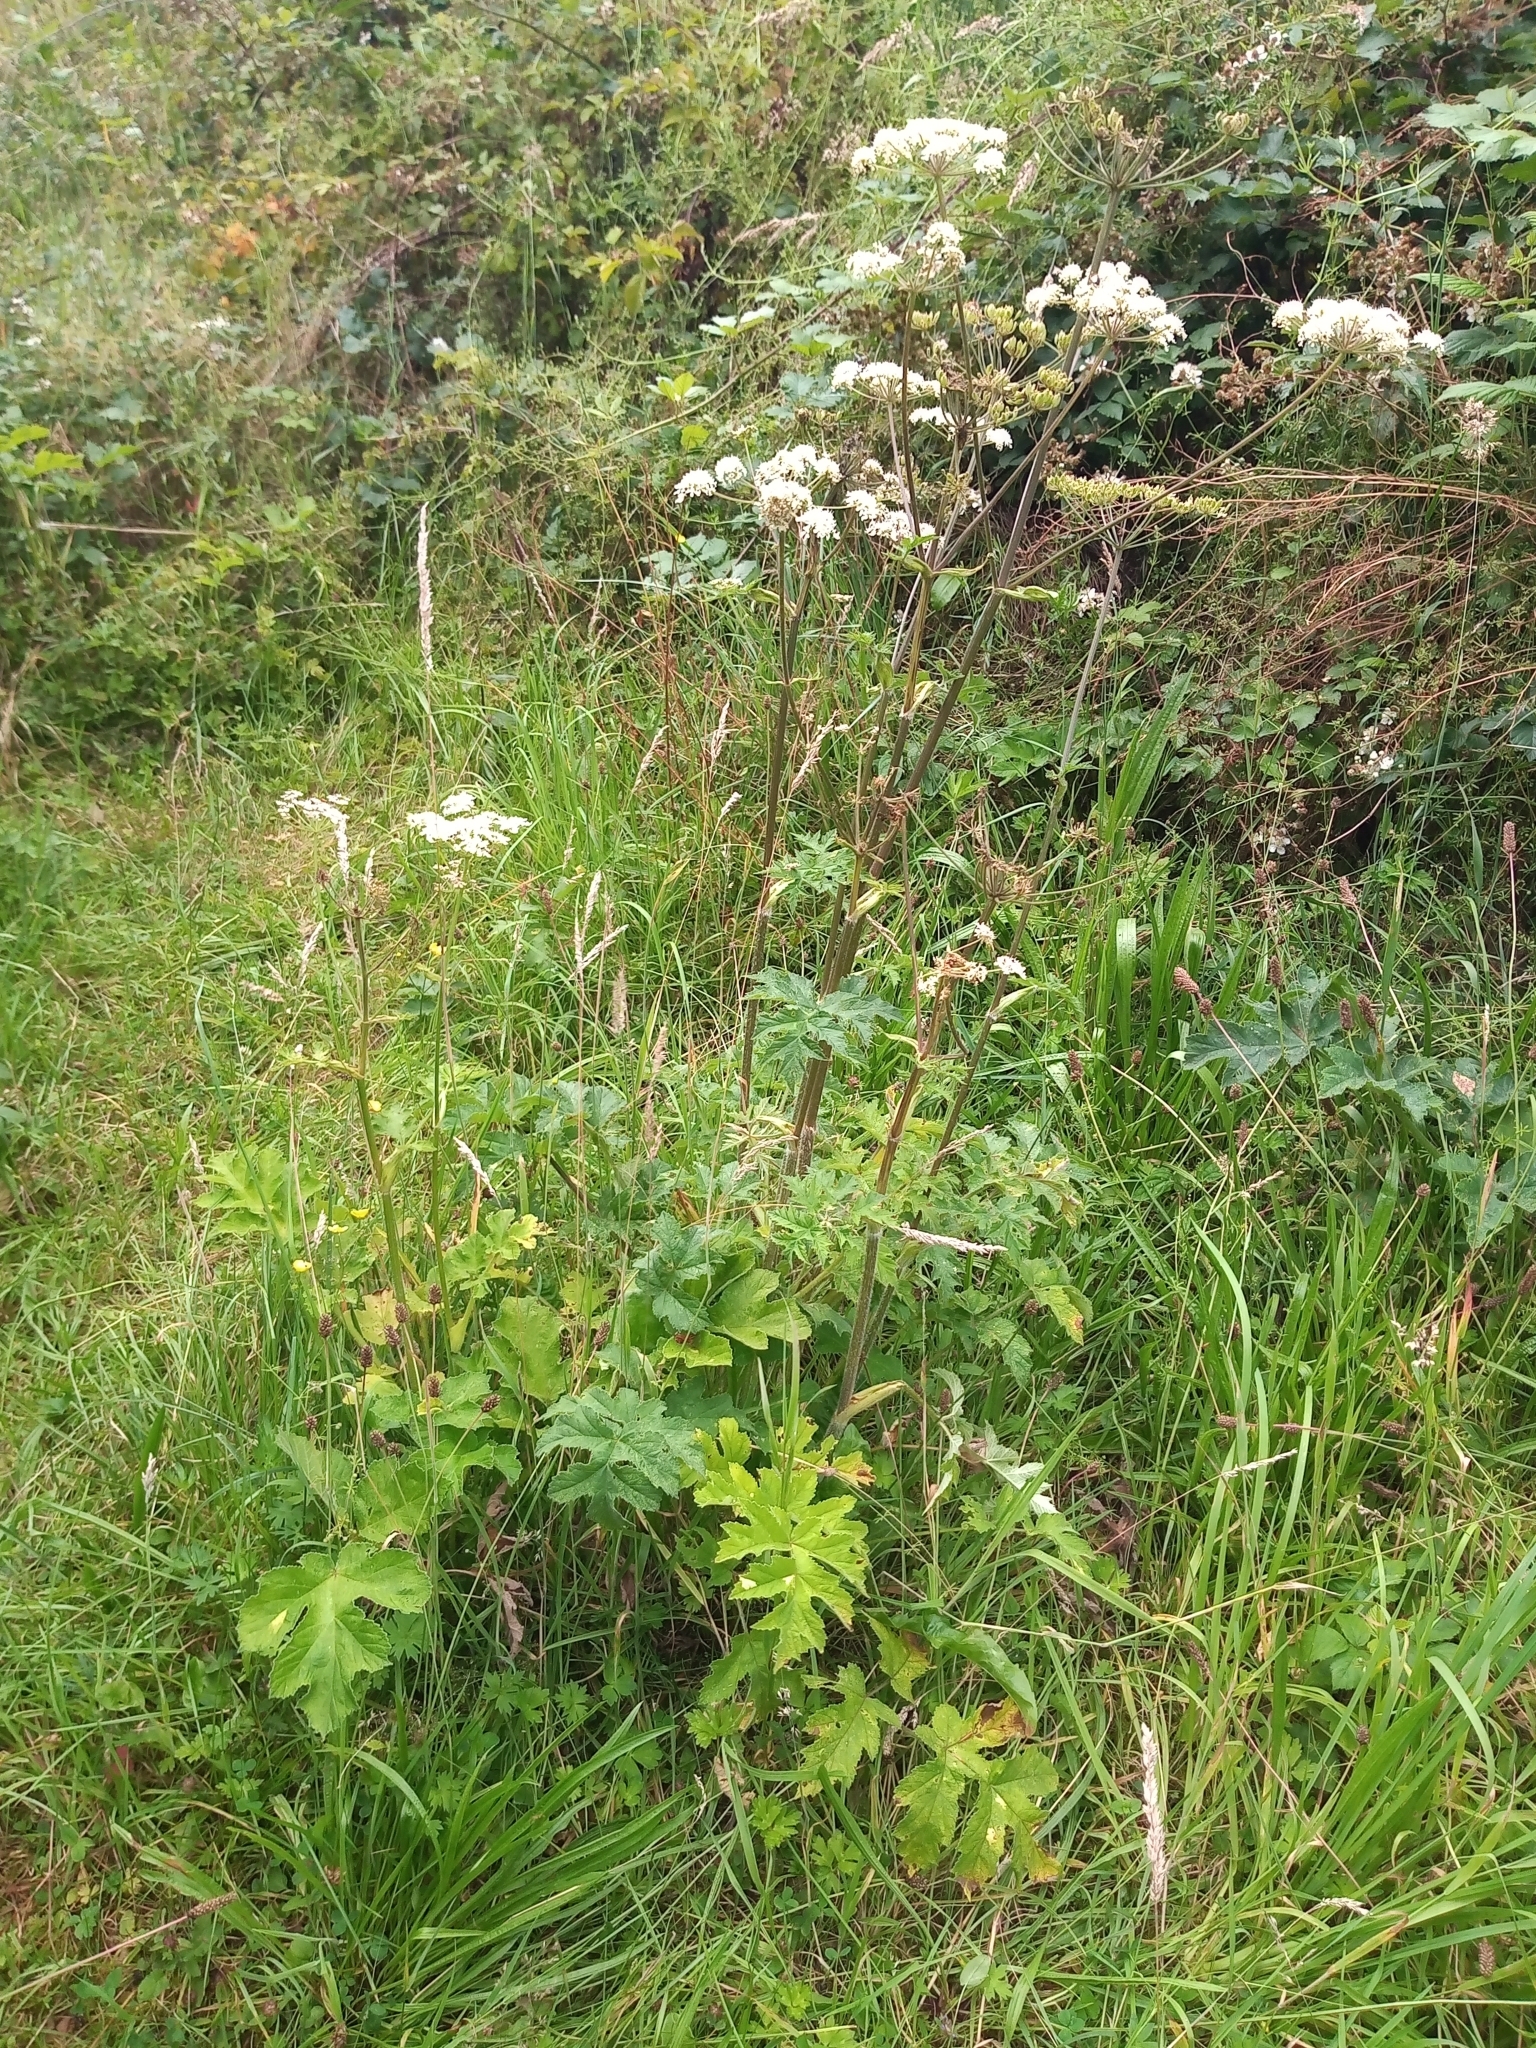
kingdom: Plantae
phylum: Tracheophyta
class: Magnoliopsida
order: Apiales
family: Apiaceae
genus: Heracleum
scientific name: Heracleum sphondylium
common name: Hogweed
